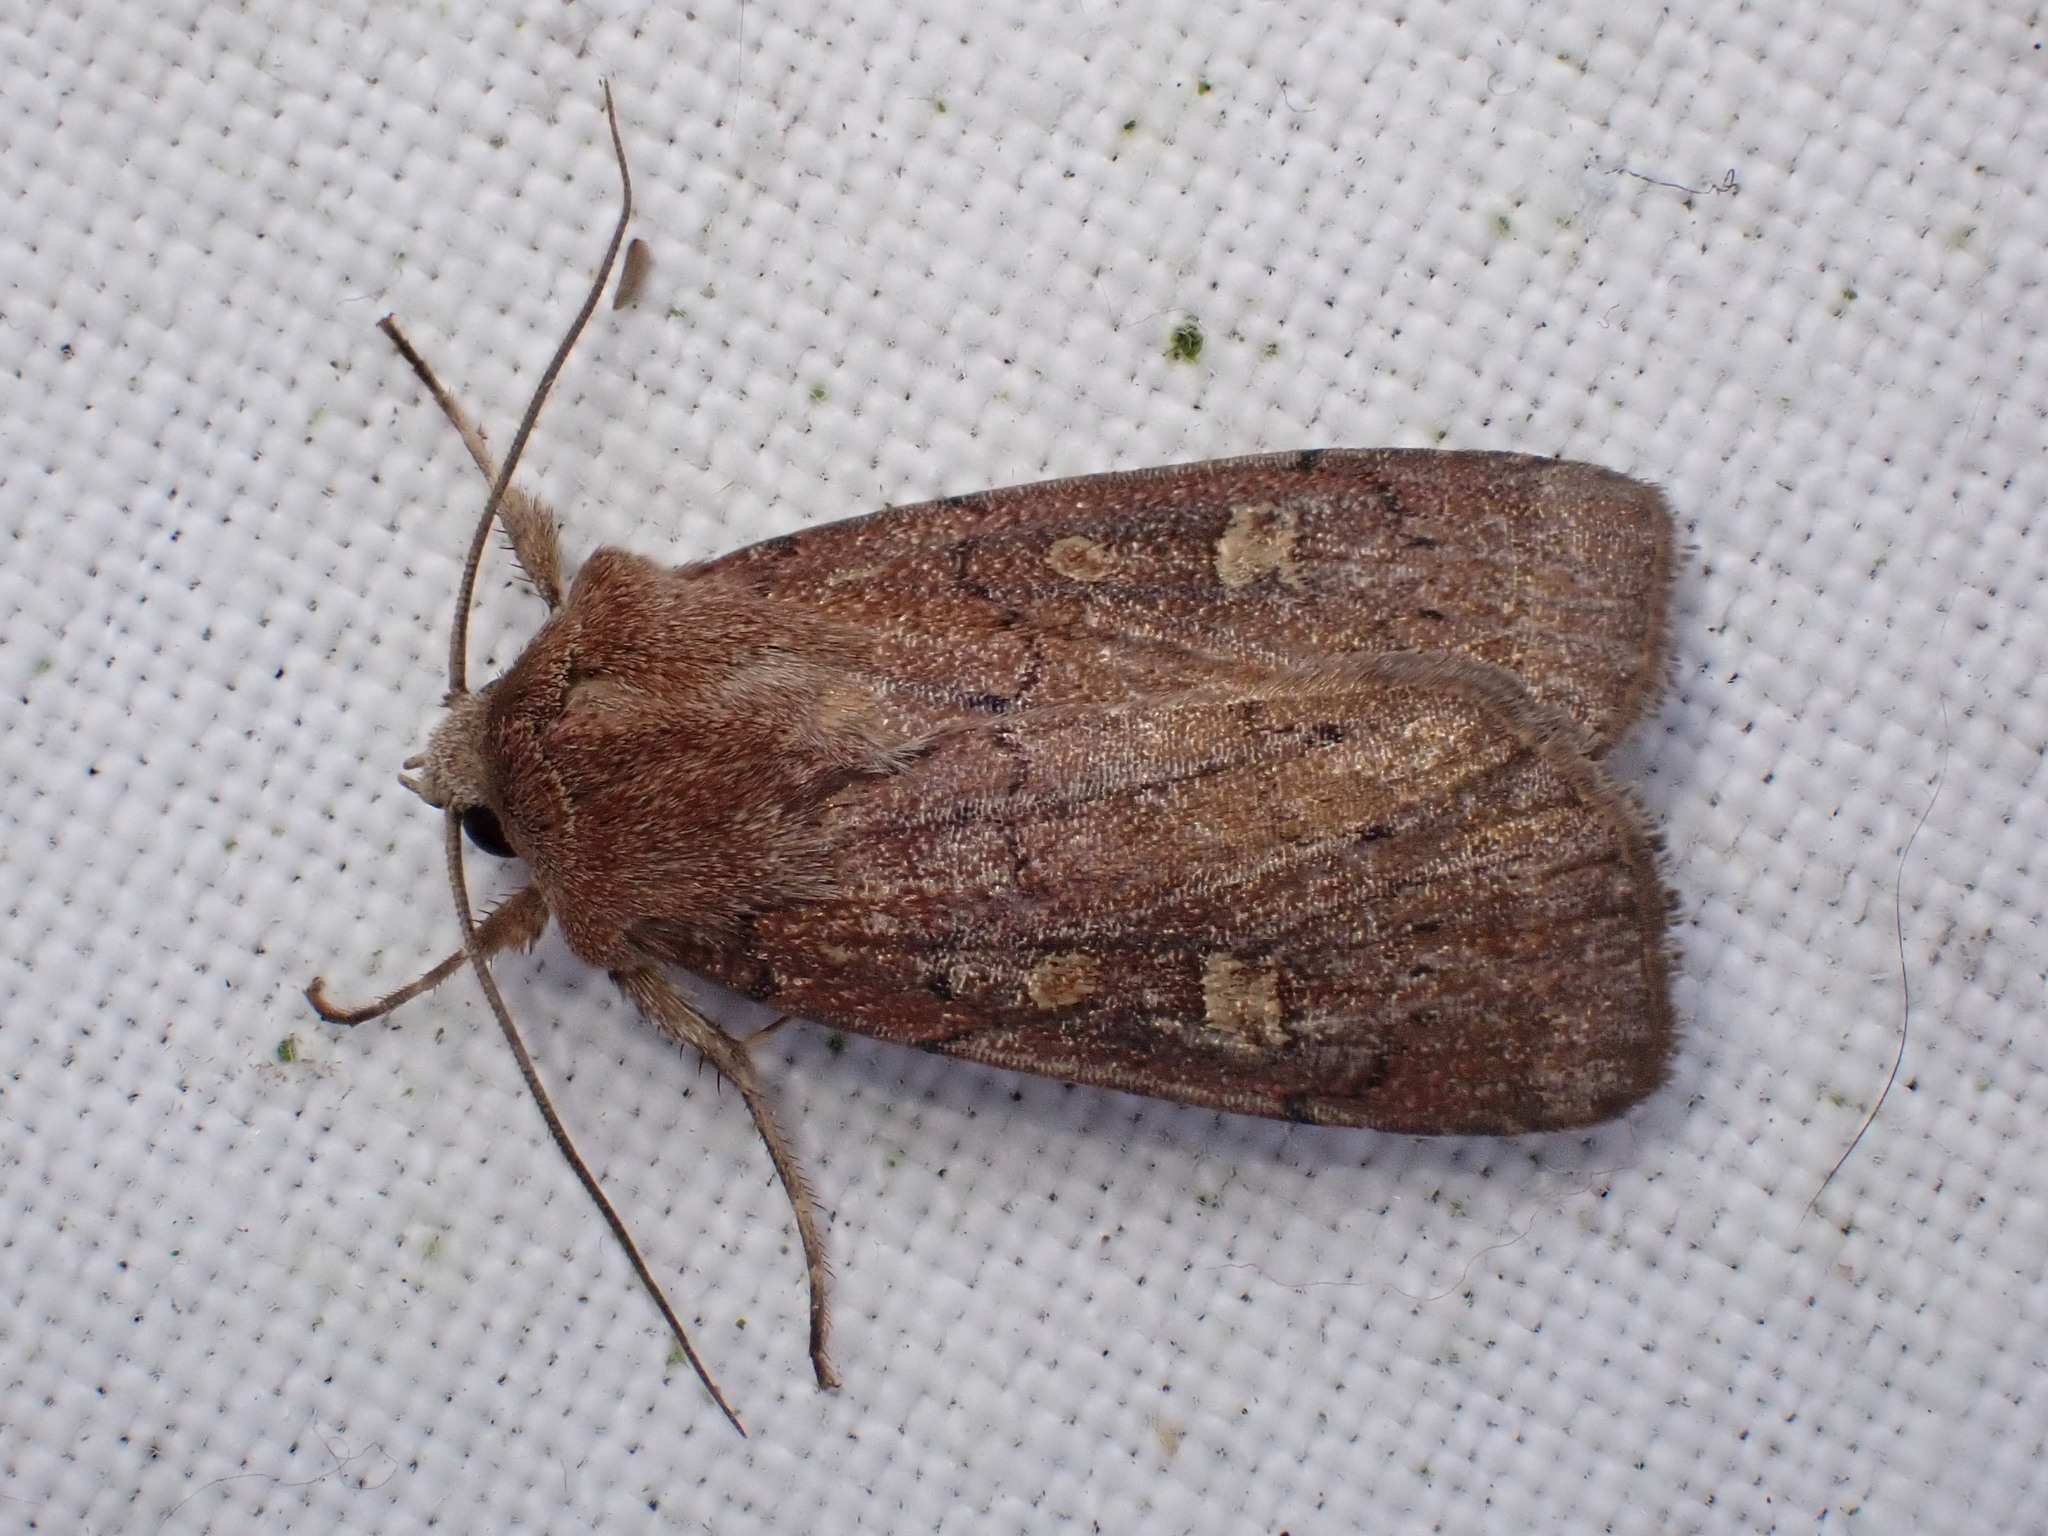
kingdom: Animalia
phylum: Arthropoda
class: Insecta
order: Lepidoptera
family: Noctuidae
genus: Xestia
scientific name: Xestia xanthographa
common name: Square-spot rustic
